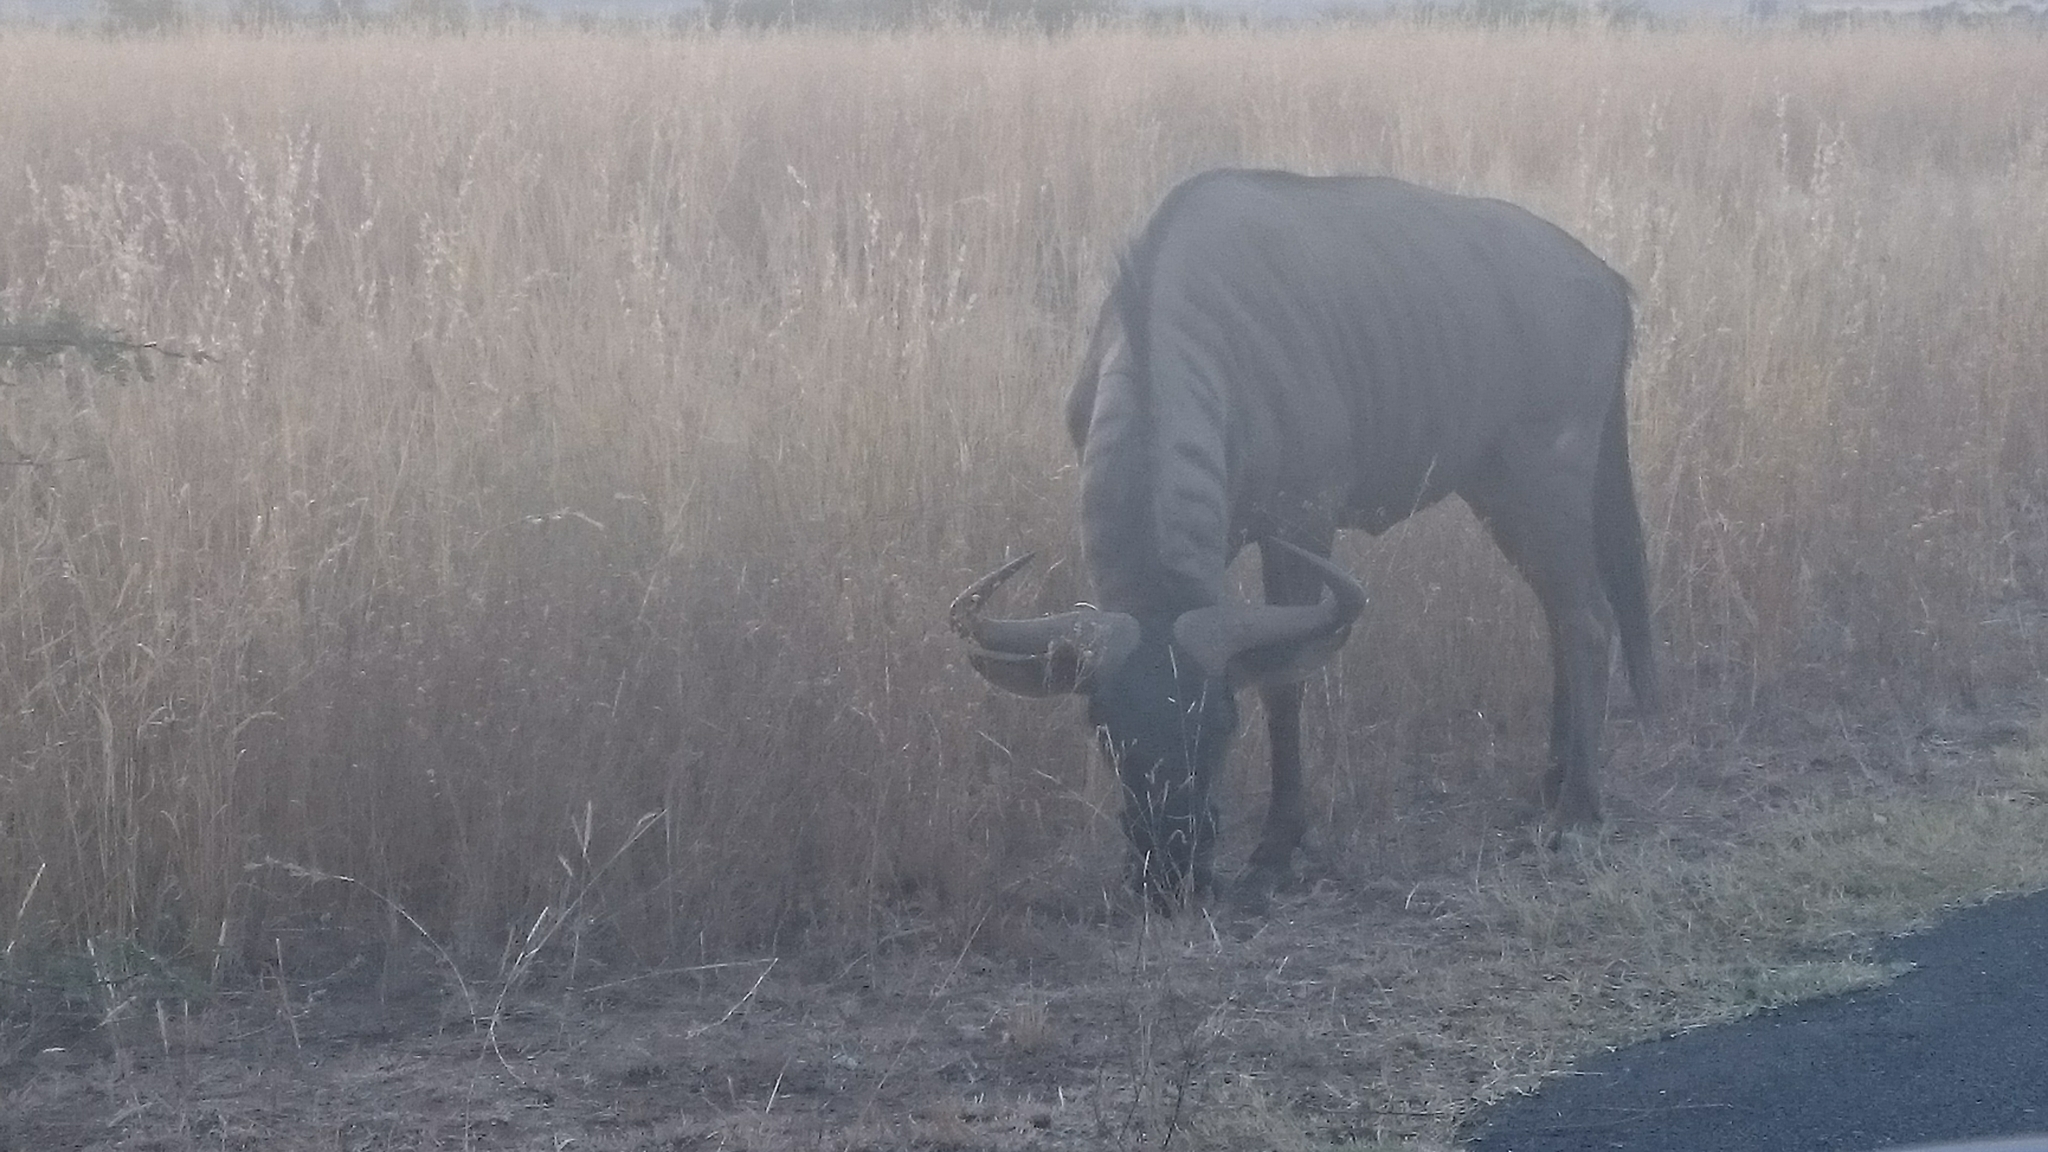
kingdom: Animalia
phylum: Chordata
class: Mammalia
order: Artiodactyla
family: Bovidae
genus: Connochaetes
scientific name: Connochaetes taurinus
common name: Blue wildebeest
